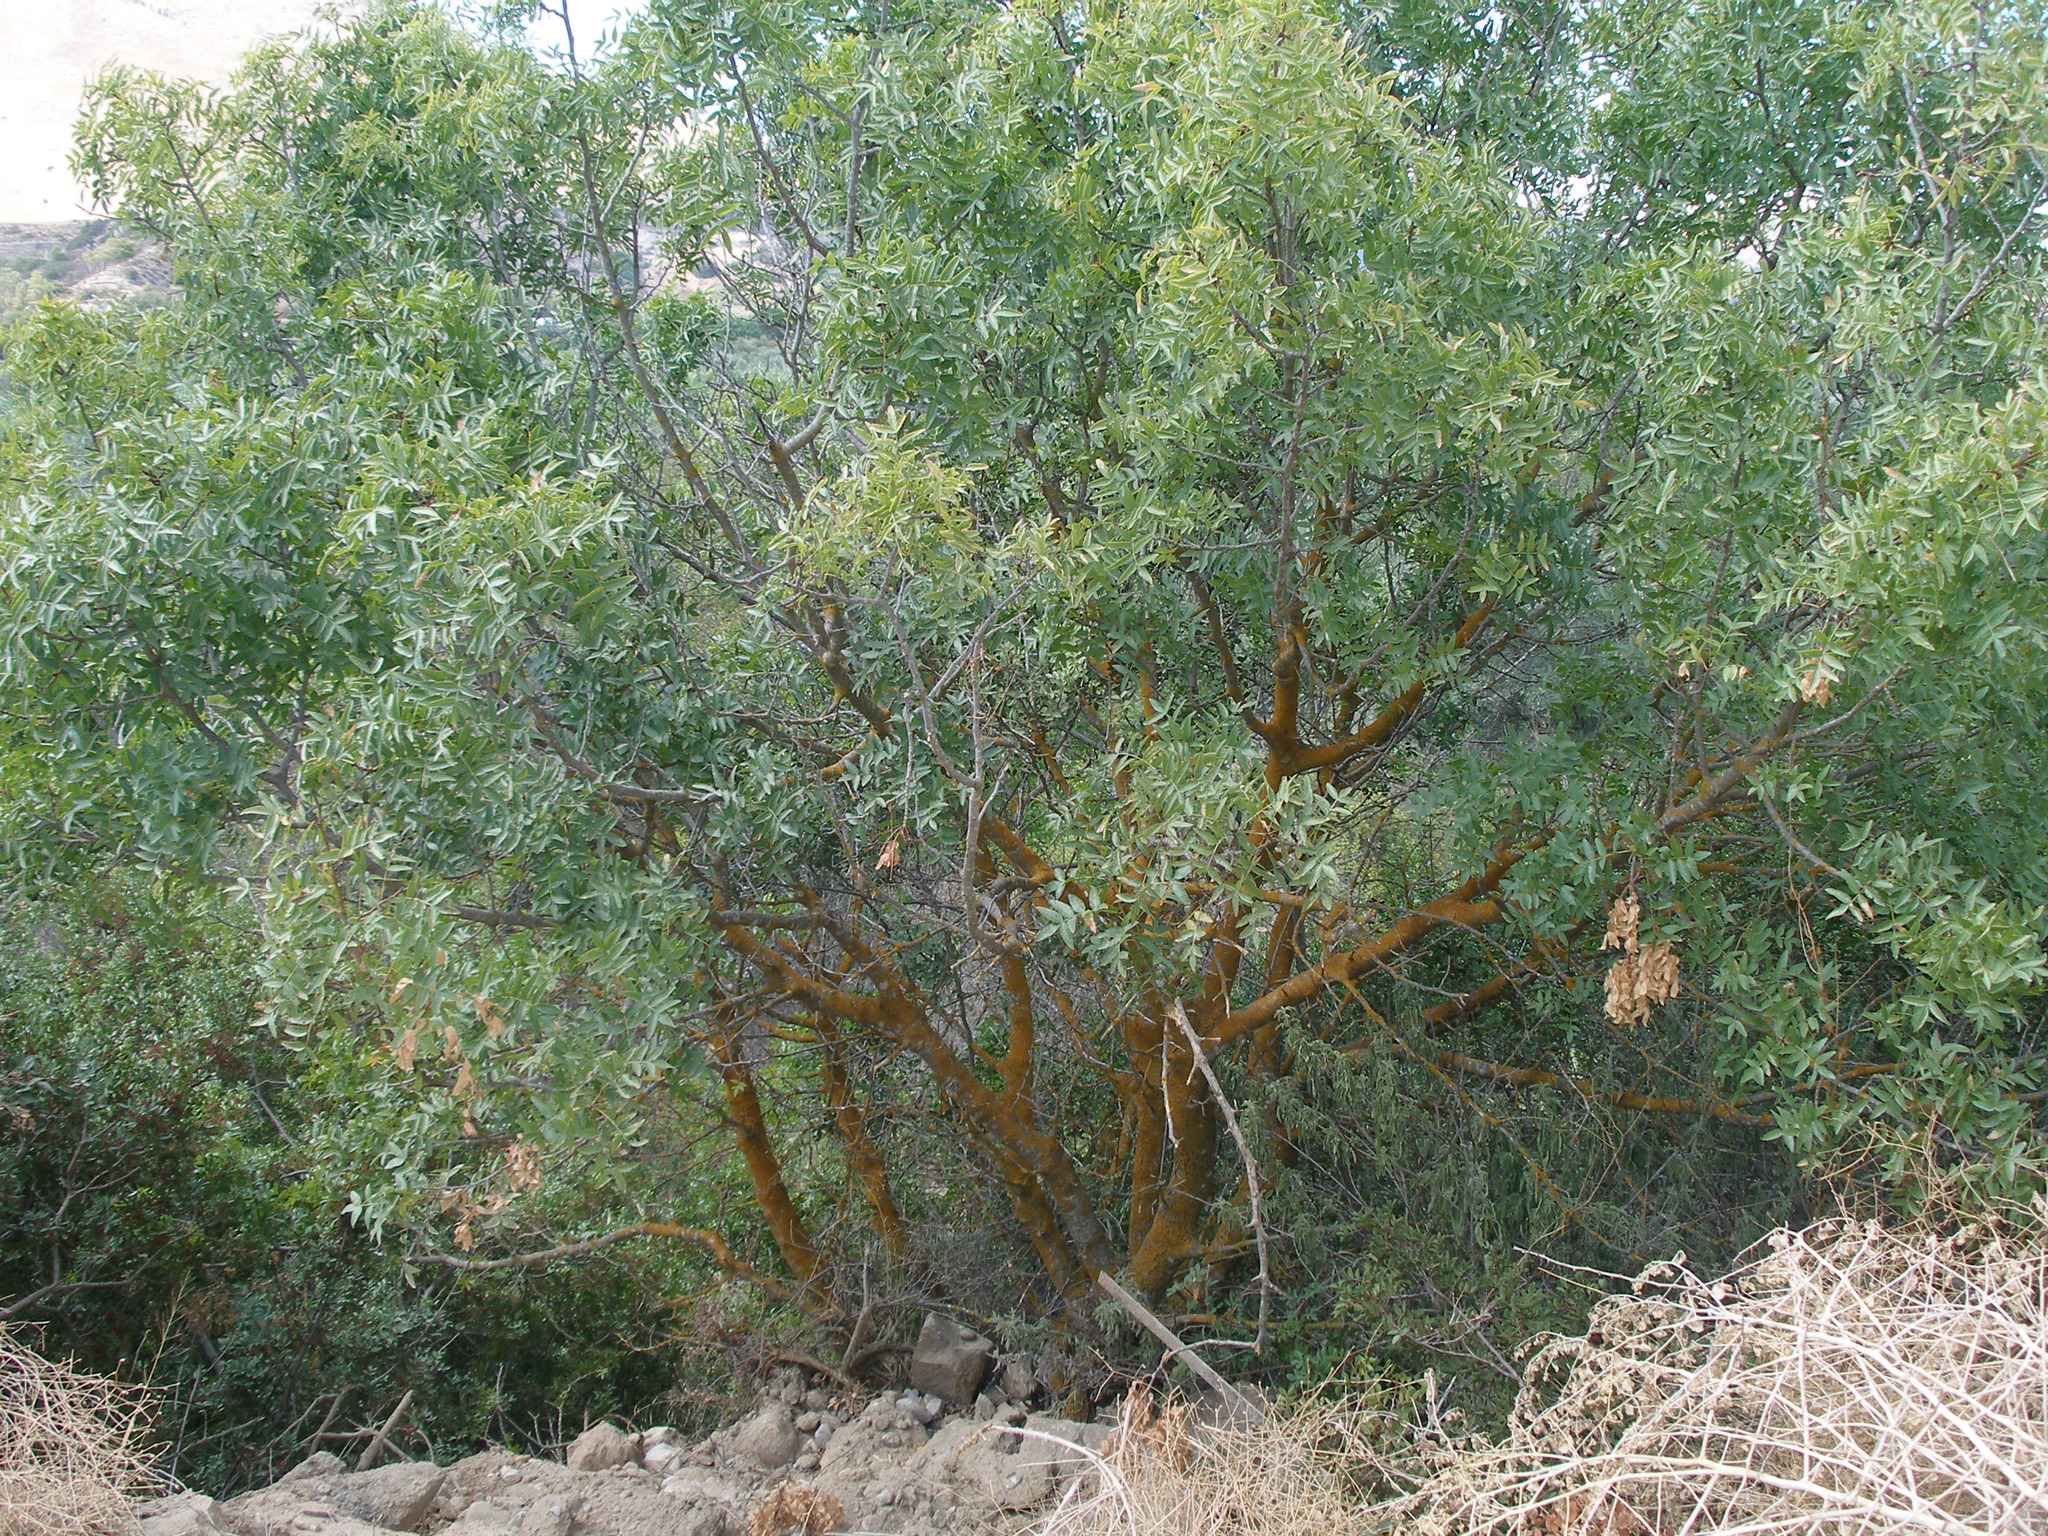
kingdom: Plantae
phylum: Tracheophyta
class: Magnoliopsida
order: Sapindales
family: Anacardiaceae
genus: Pistacia
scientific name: Pistacia atlantica
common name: Mt. atlas mastic tree
